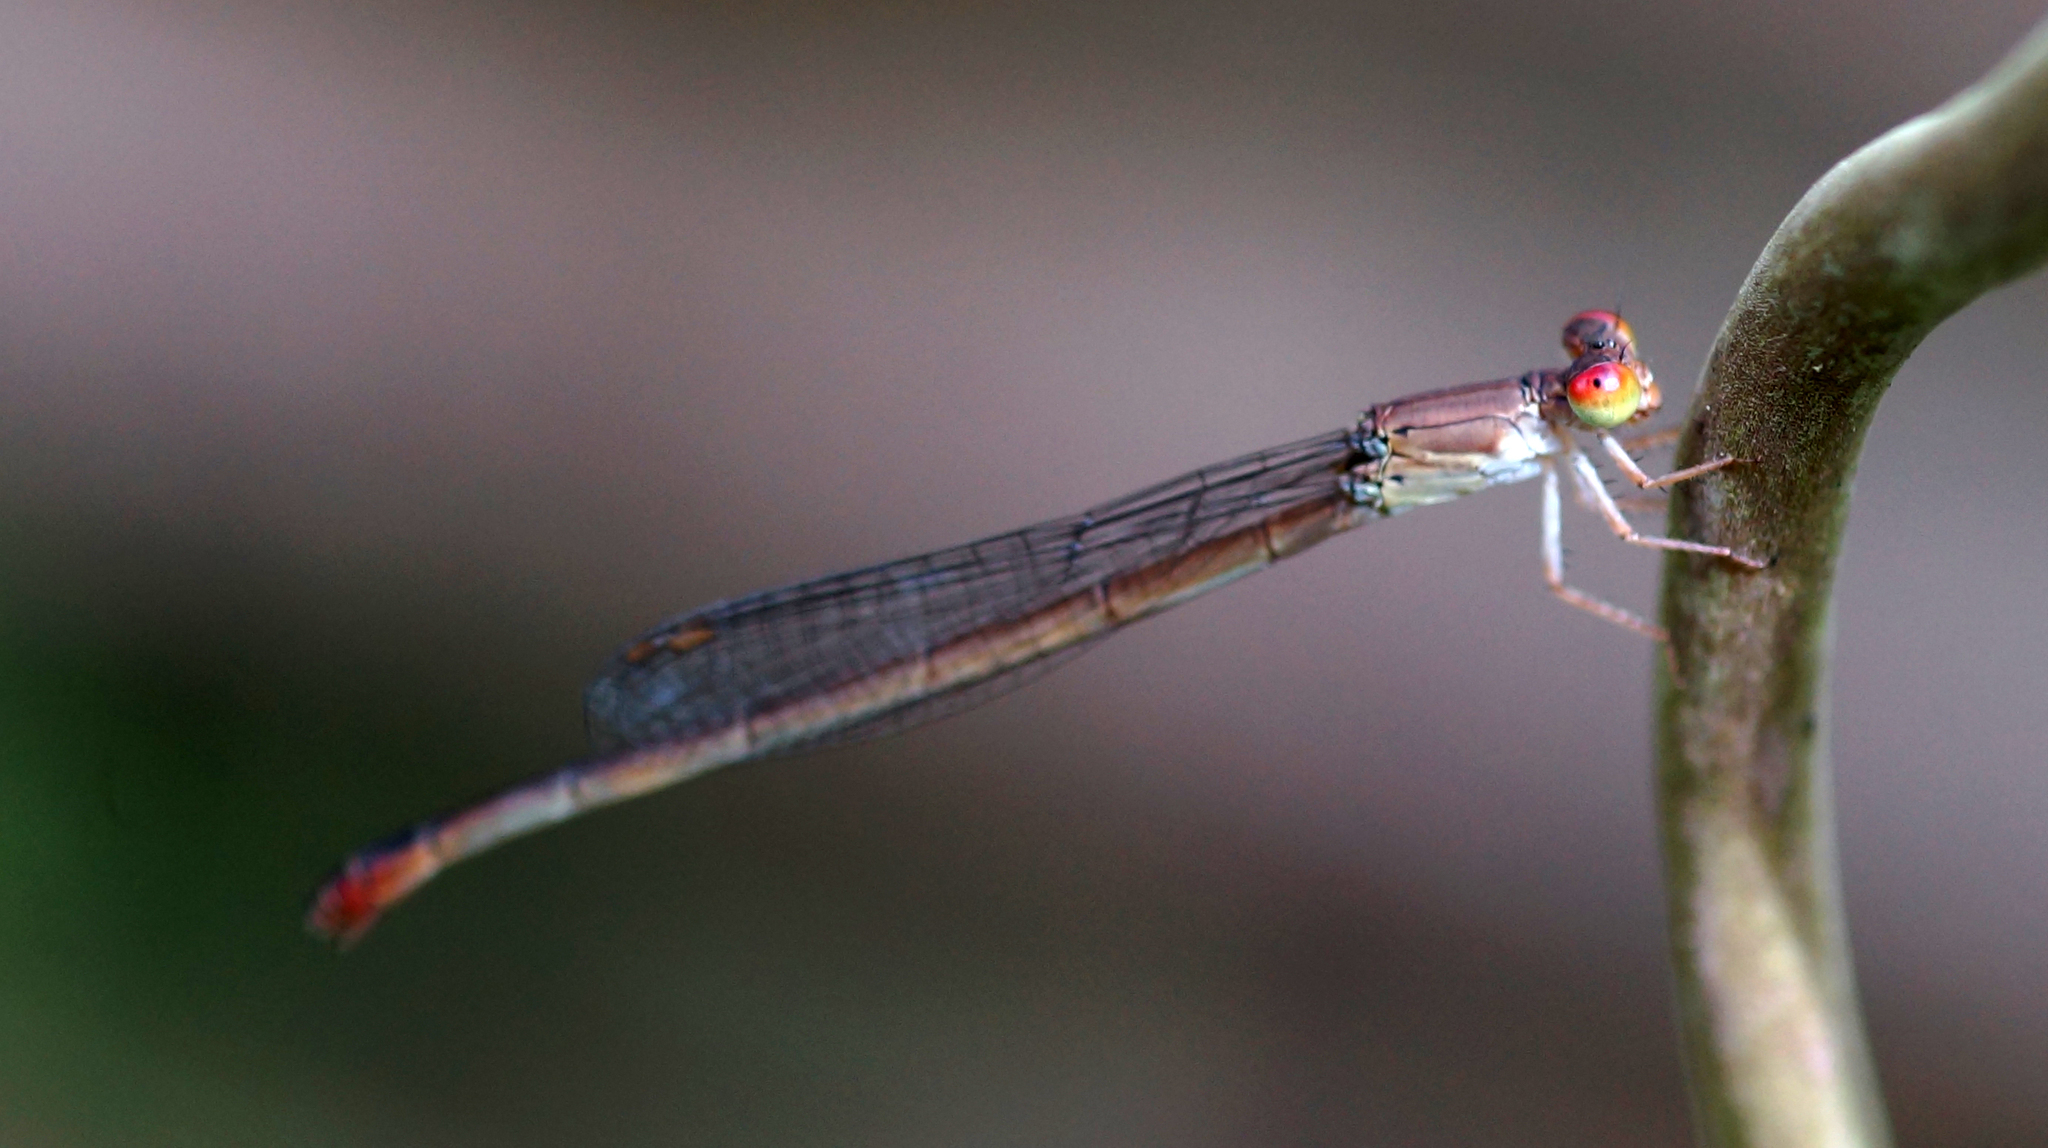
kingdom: Animalia
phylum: Arthropoda
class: Insecta
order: Odonata
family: Coenagrionidae
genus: Ceriagrion
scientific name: Ceriagrion praetermissum
